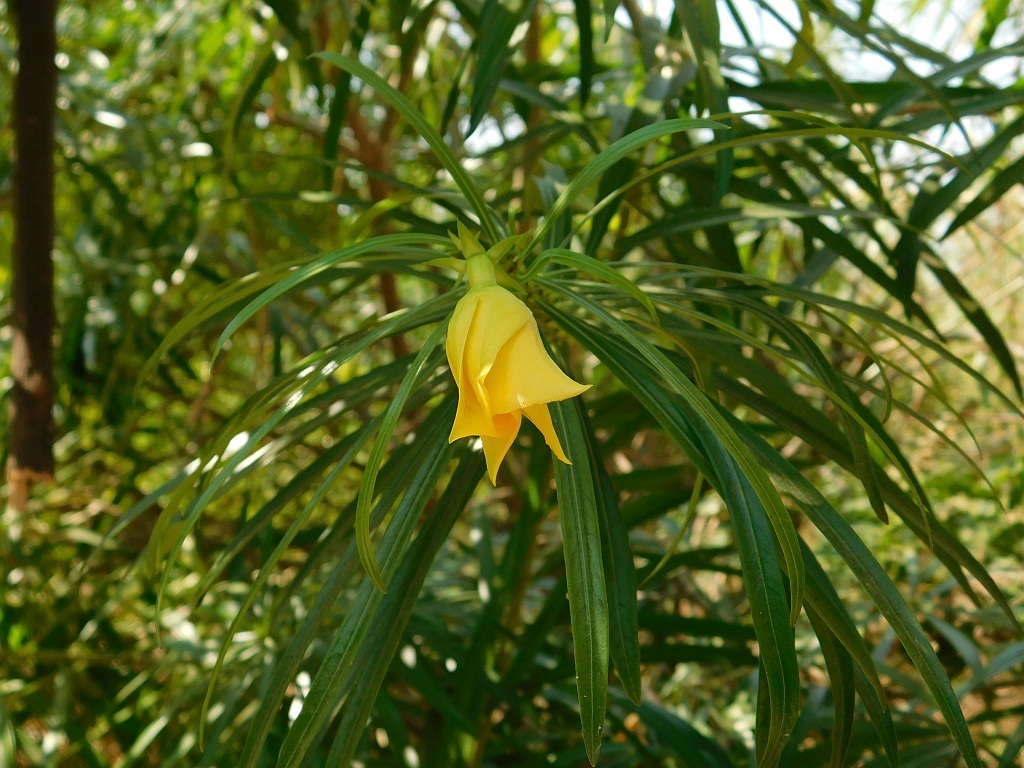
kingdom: Plantae
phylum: Tracheophyta
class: Magnoliopsida
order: Gentianales
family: Apocynaceae
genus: Cascabela
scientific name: Cascabela thevetia
